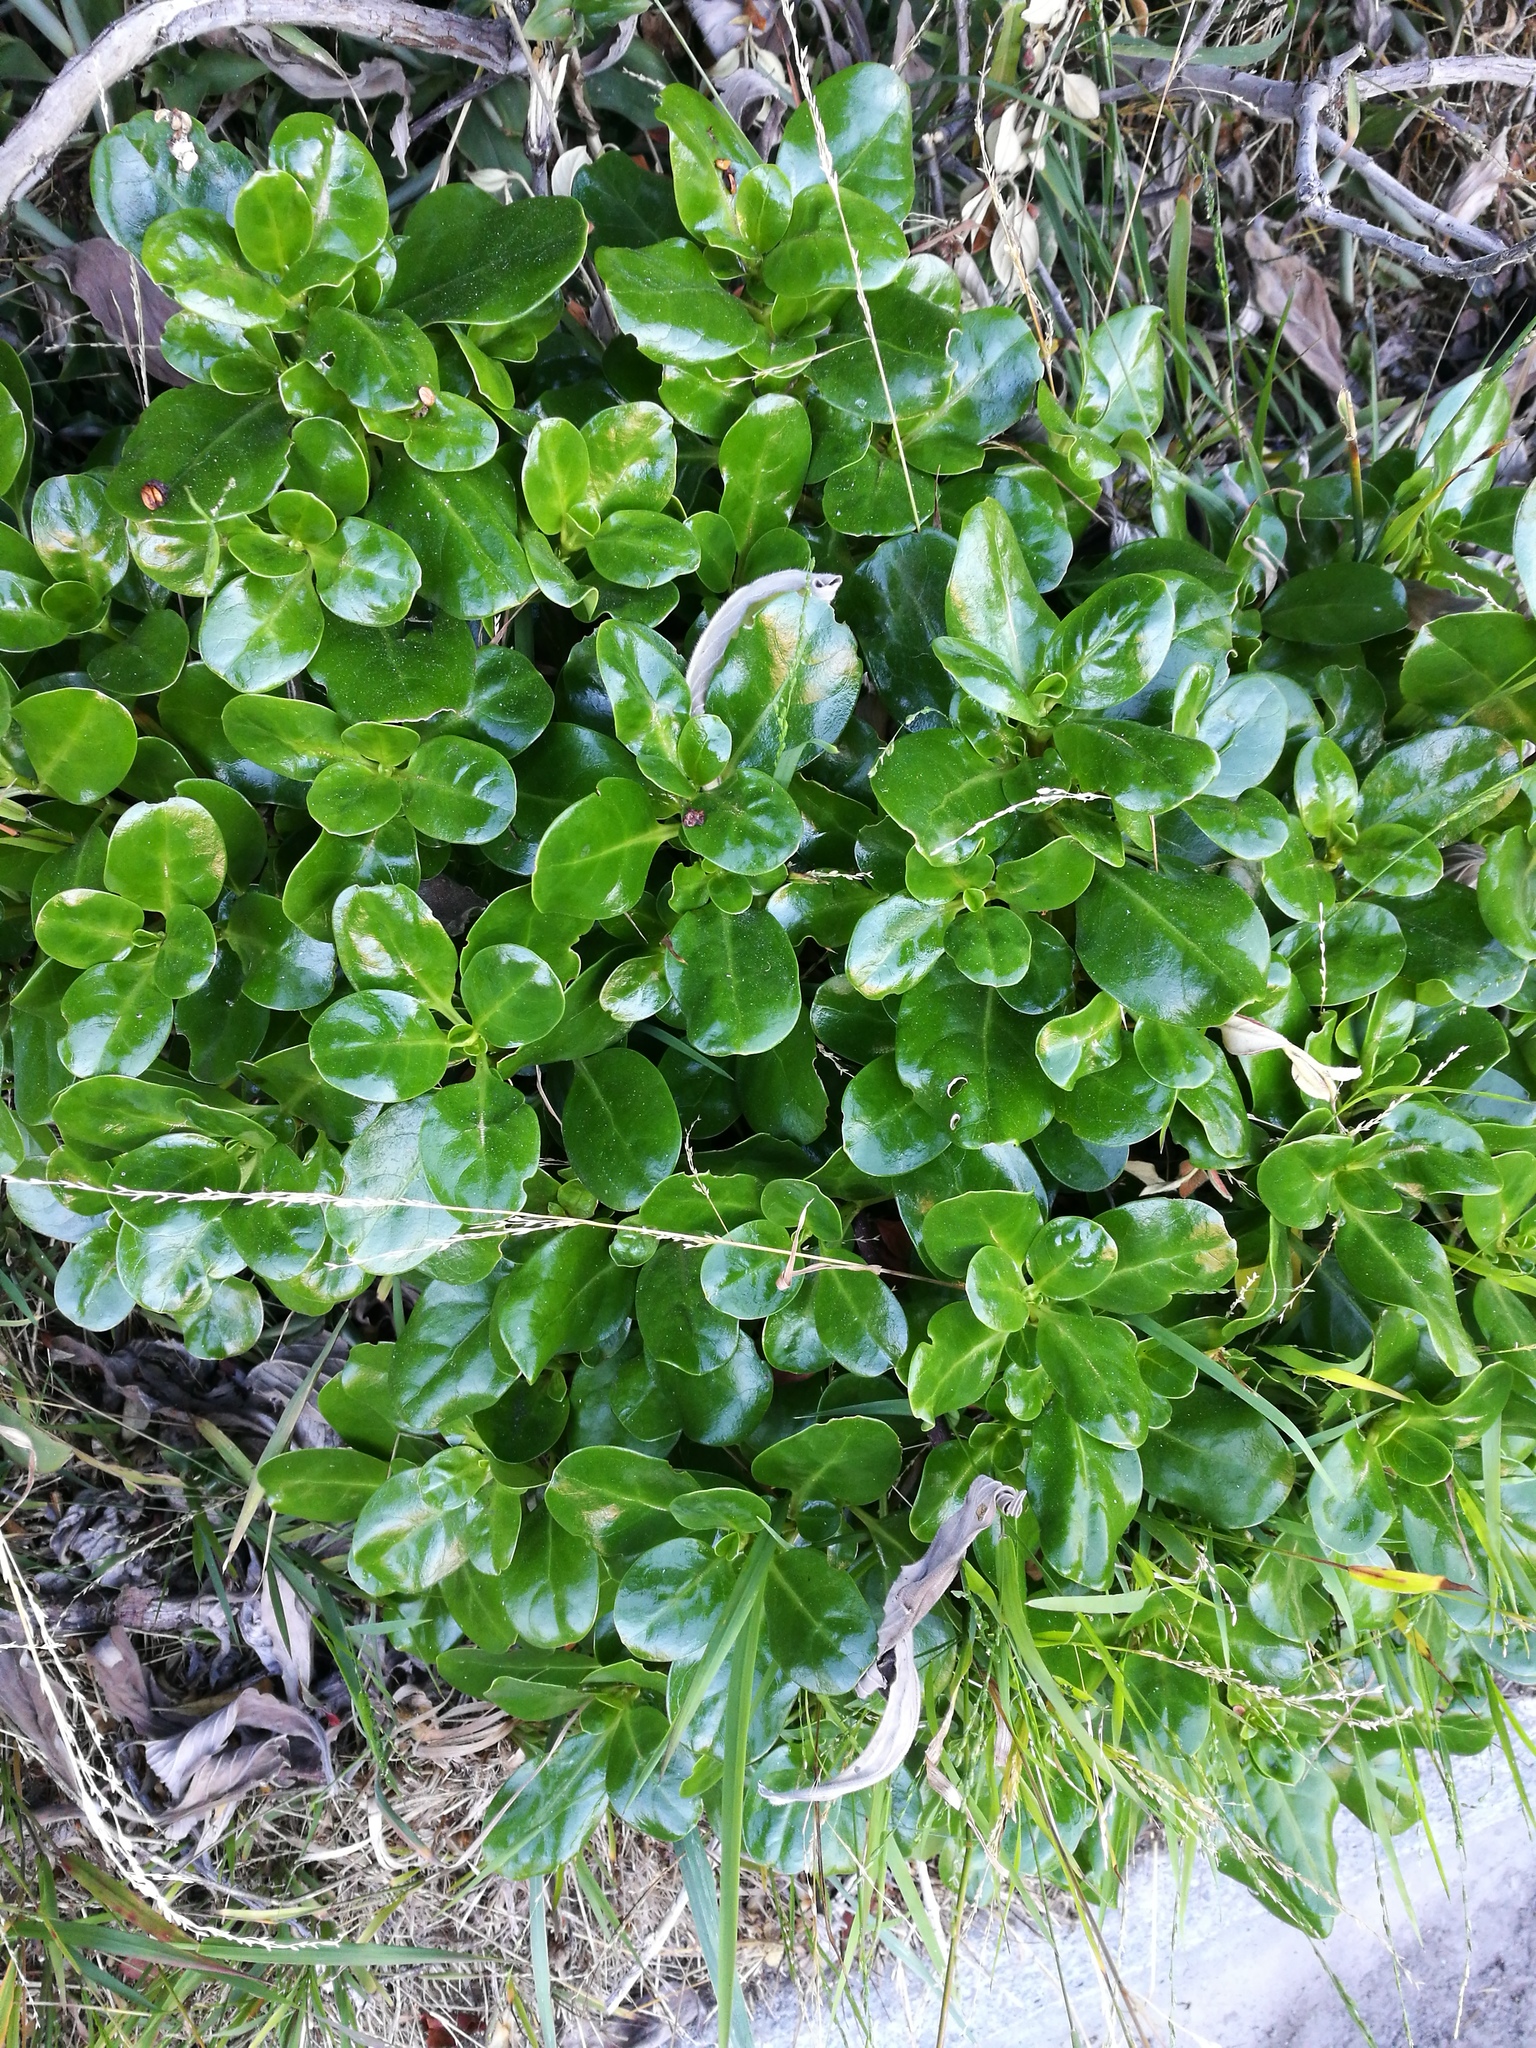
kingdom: Plantae
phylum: Tracheophyta
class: Magnoliopsida
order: Gentianales
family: Rubiaceae
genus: Coprosma
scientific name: Coprosma repens
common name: Tree bedstraw
